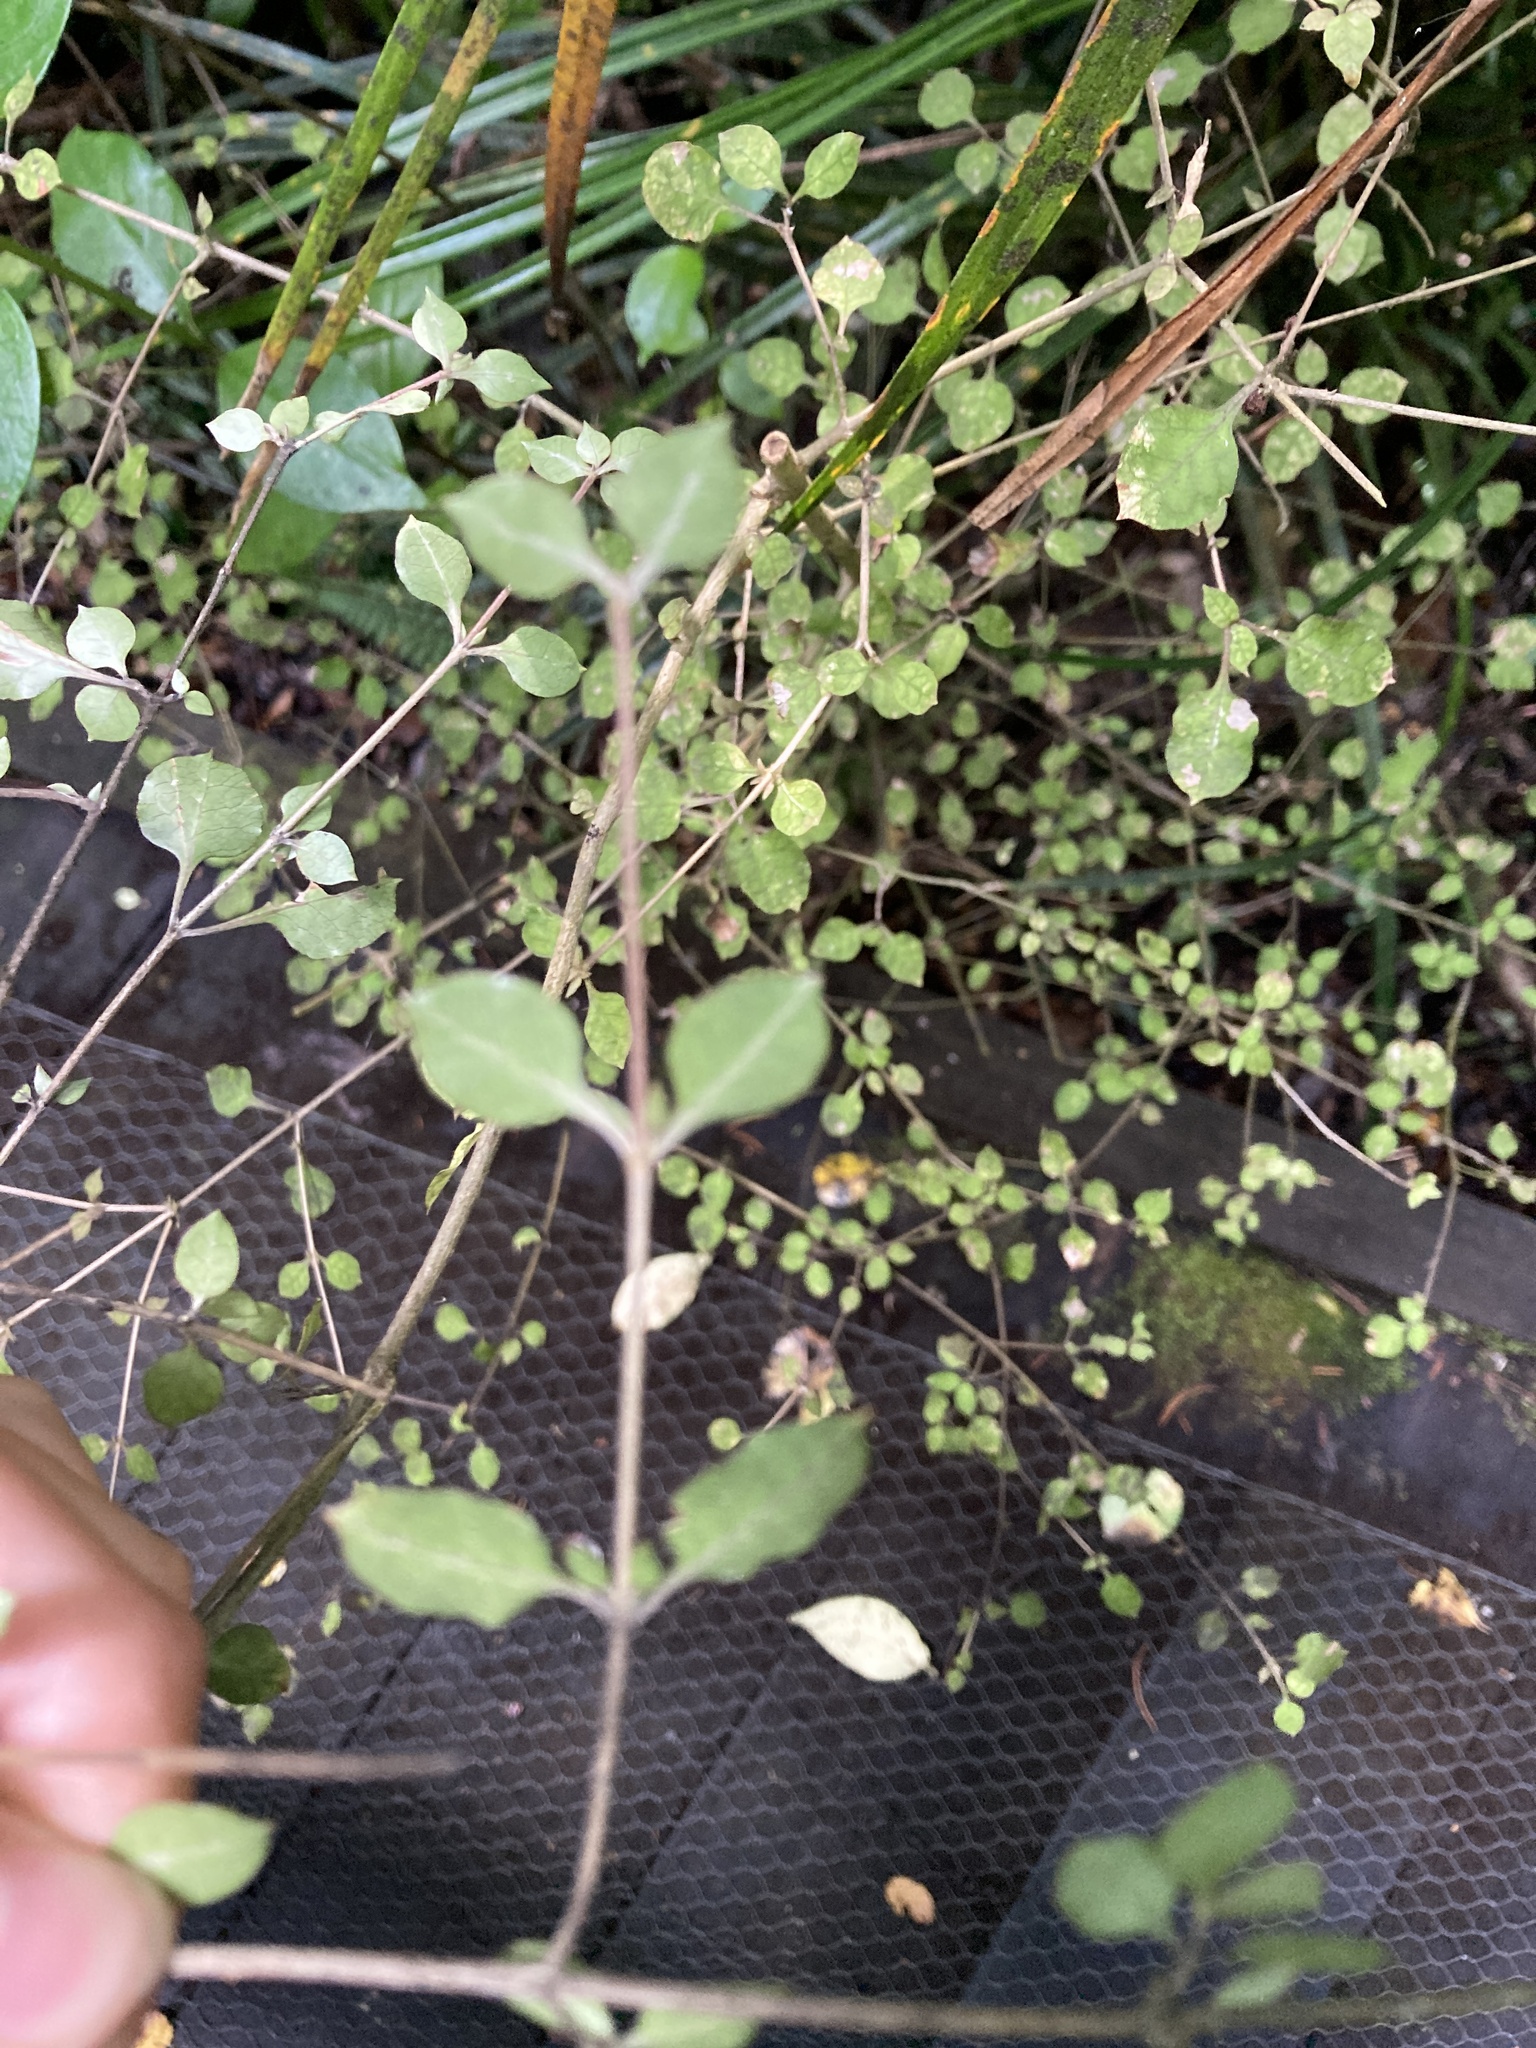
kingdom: Plantae
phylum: Tracheophyta
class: Magnoliopsida
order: Gentianales
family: Rubiaceae
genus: Coprosma
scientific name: Coprosma areolata
